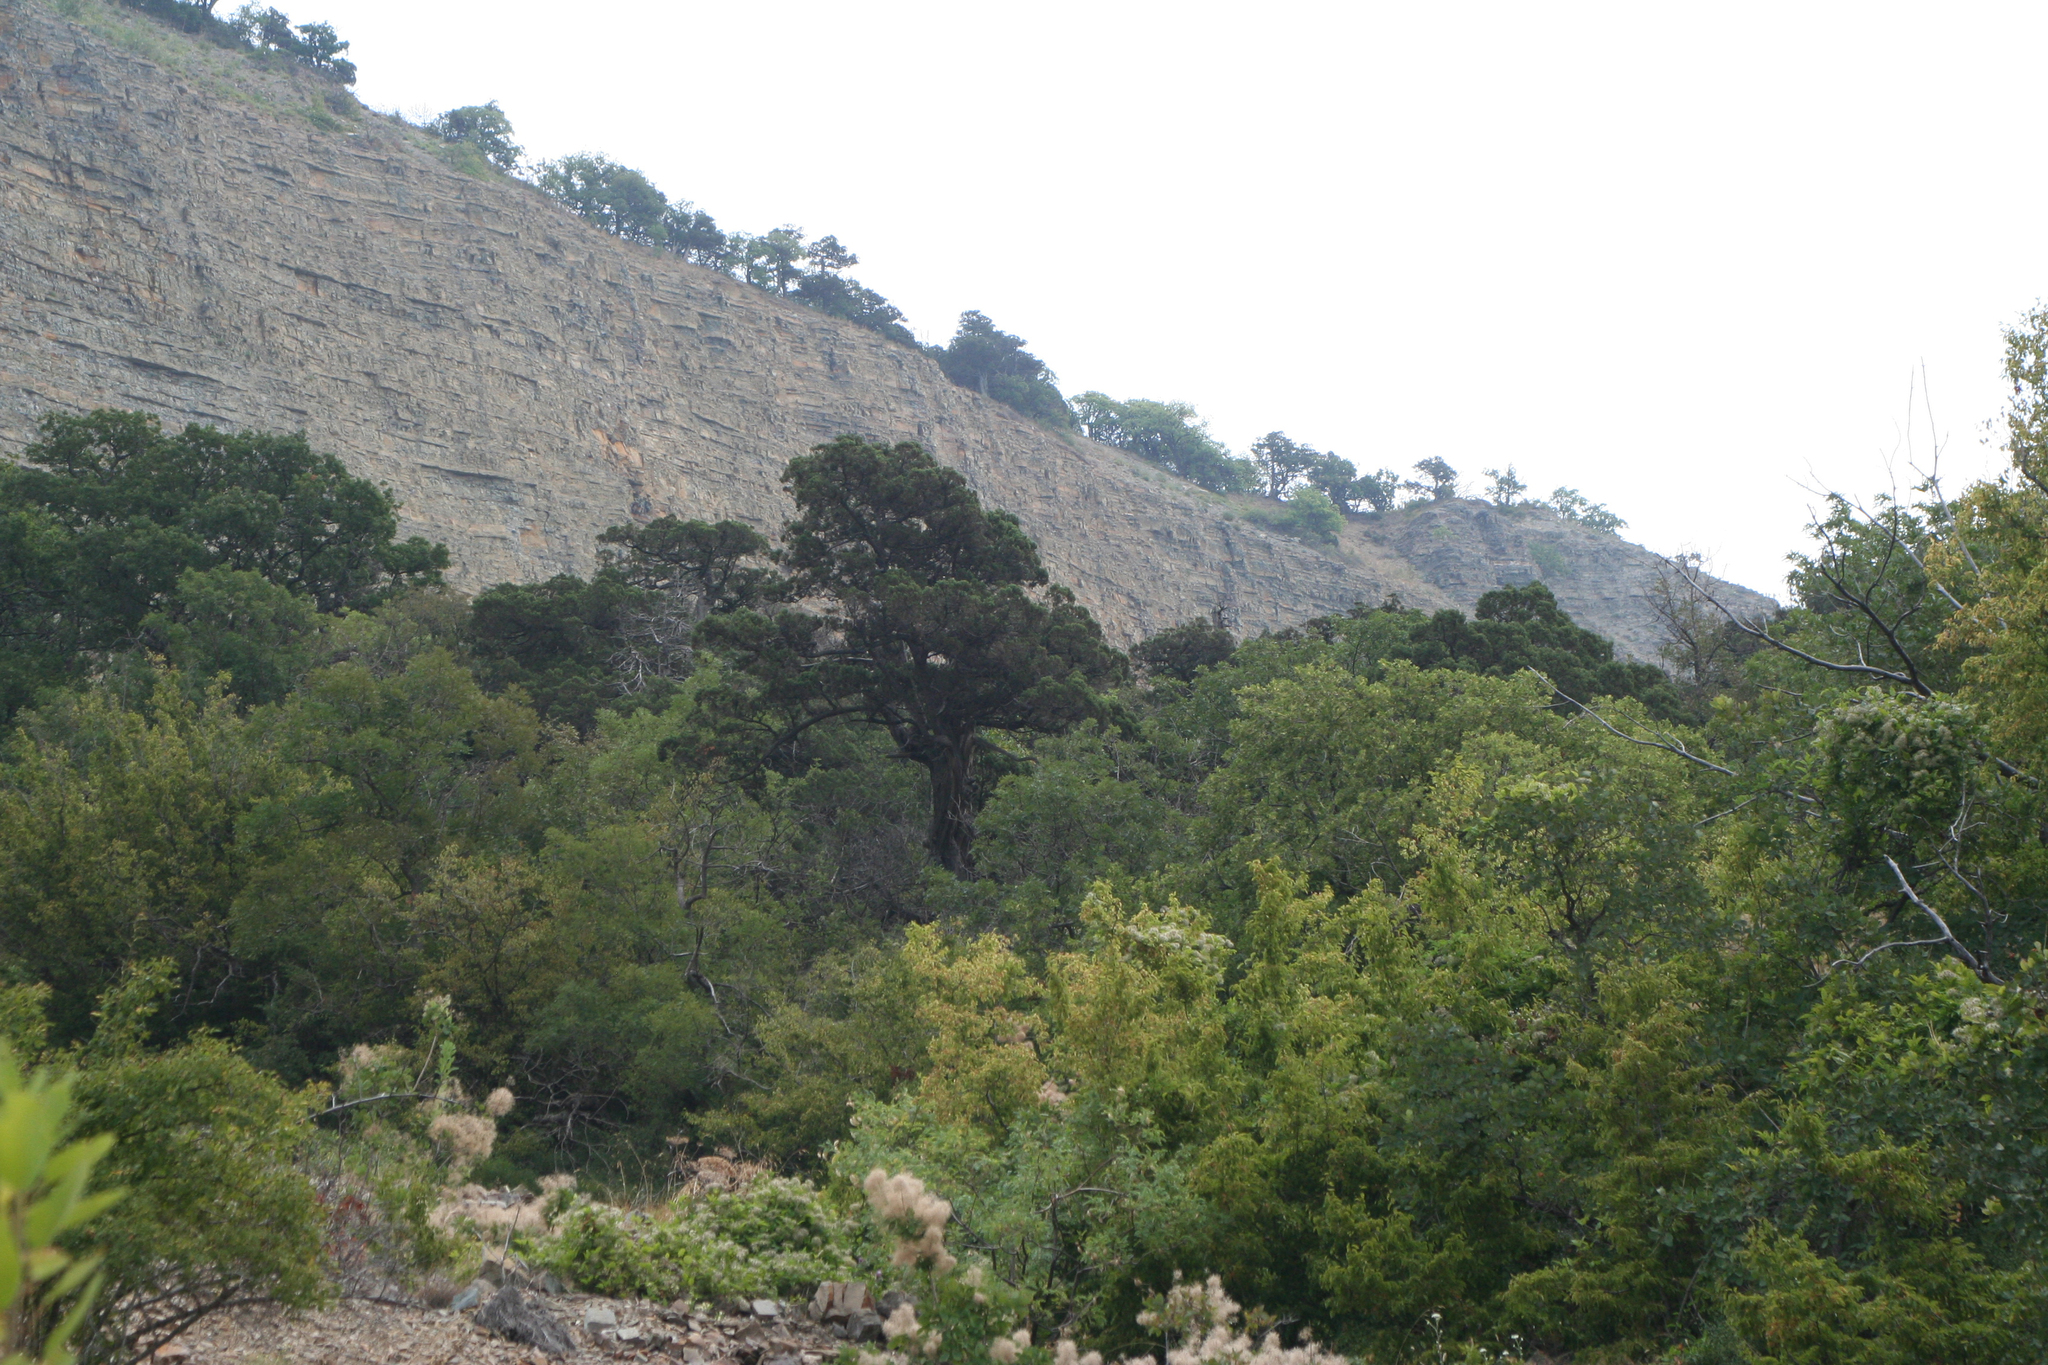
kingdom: Plantae
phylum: Tracheophyta
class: Magnoliopsida
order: Sapindales
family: Anacardiaceae
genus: Cotinus
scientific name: Cotinus coggygria
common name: Smoke-tree
